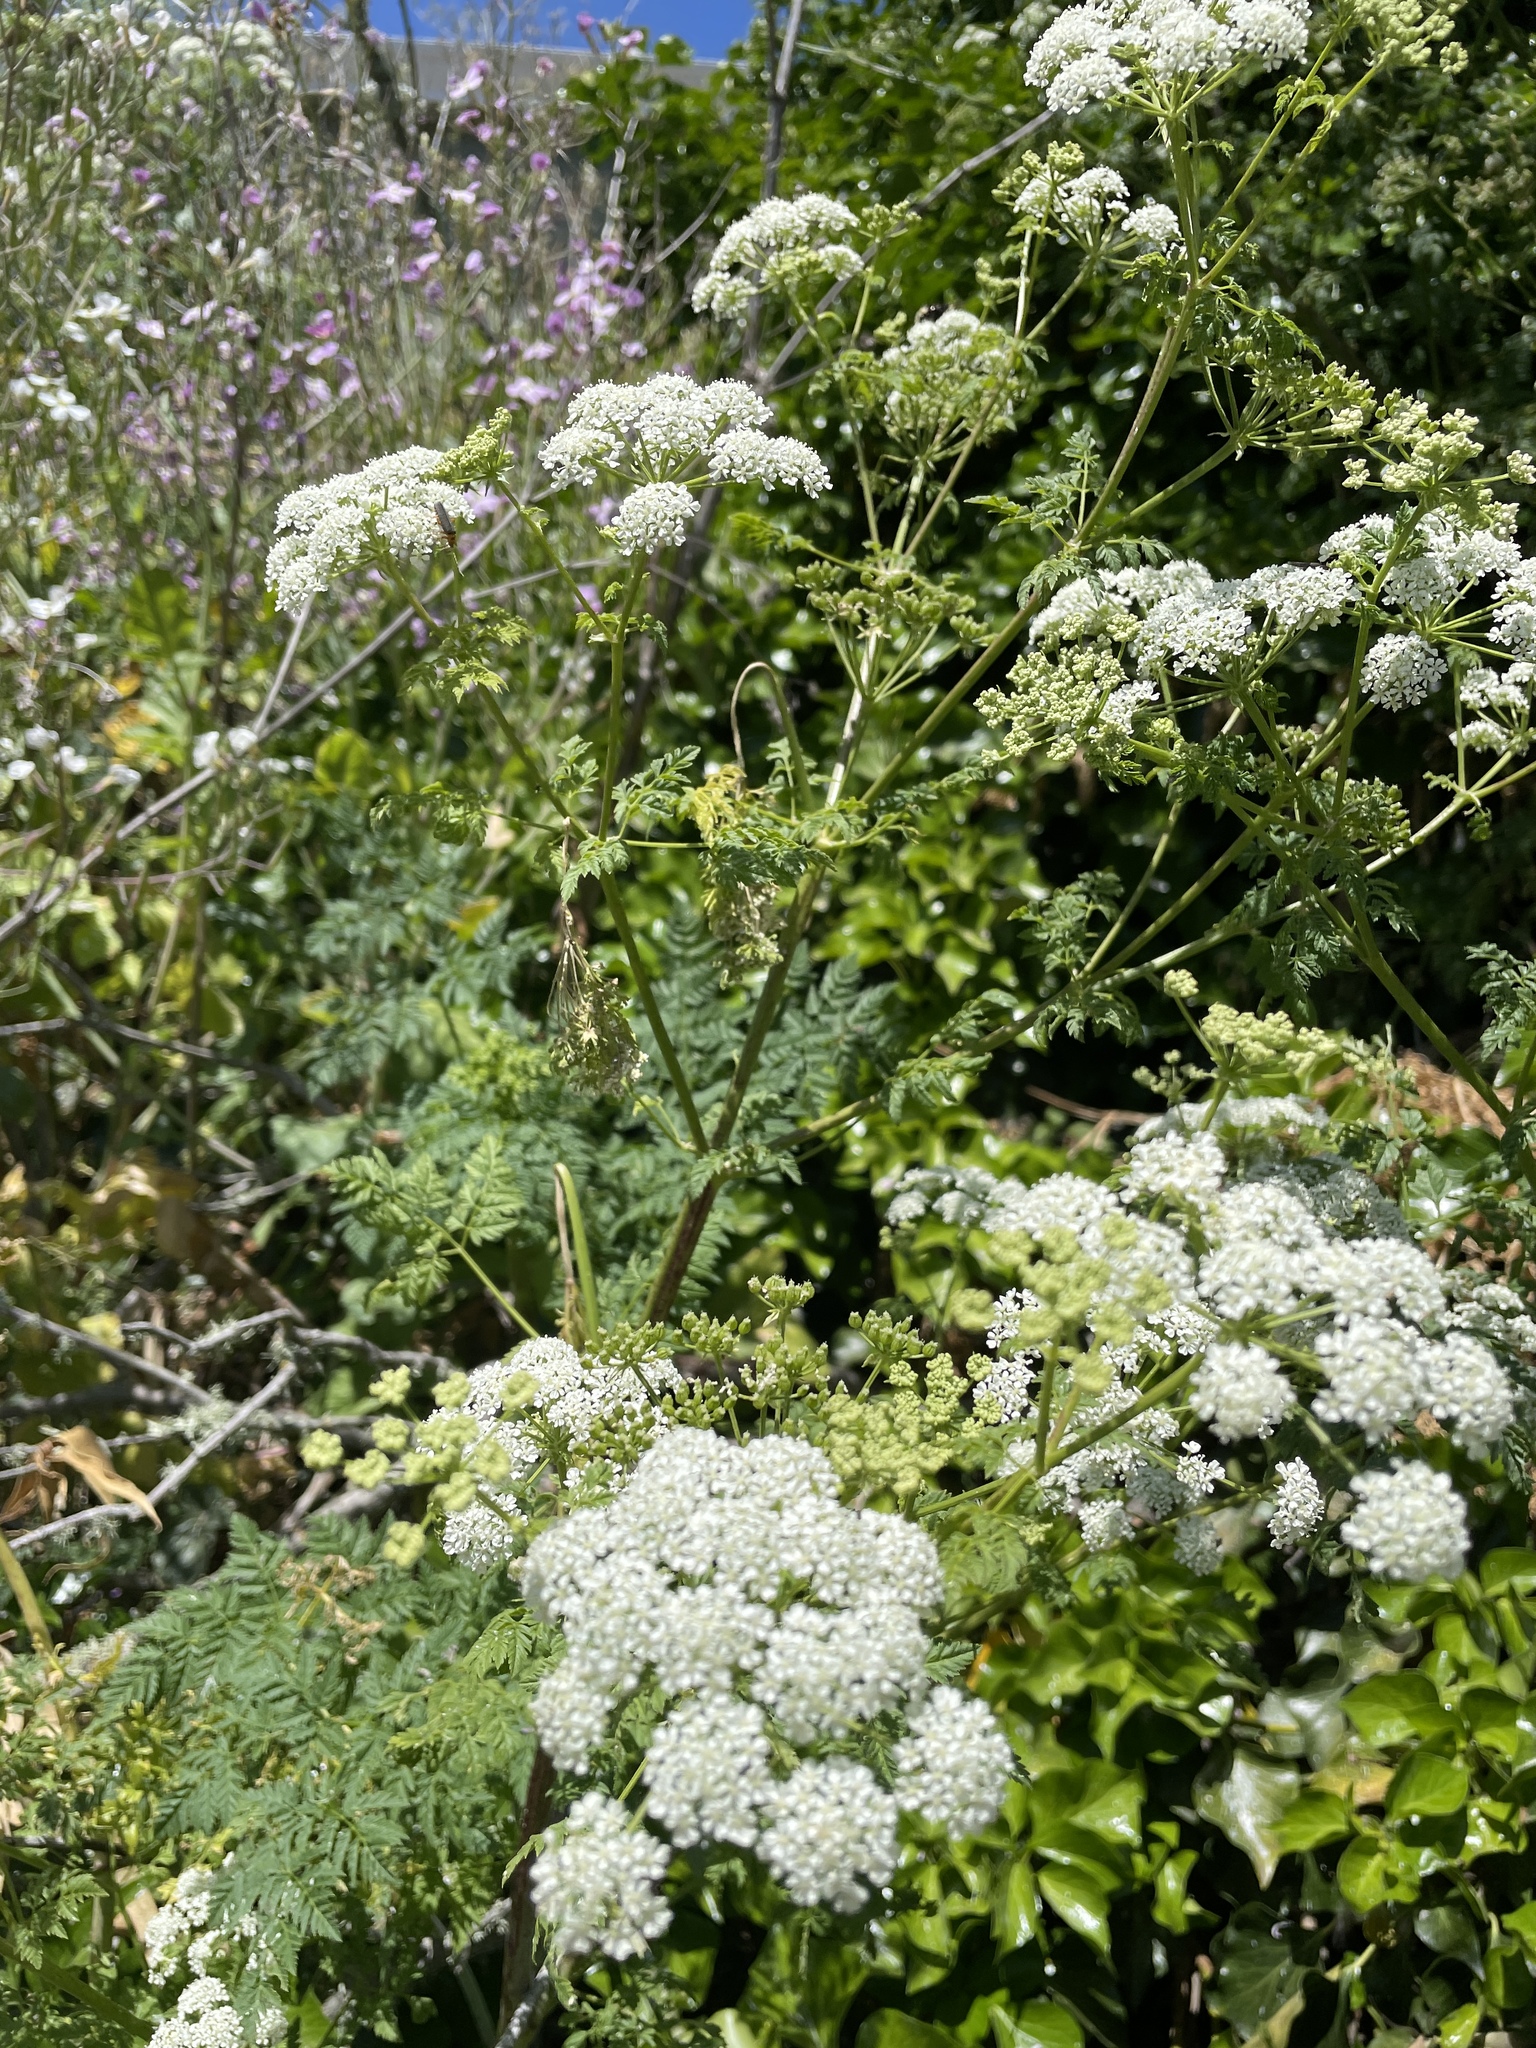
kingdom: Plantae
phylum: Tracheophyta
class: Magnoliopsida
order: Apiales
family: Apiaceae
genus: Conium
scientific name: Conium maculatum
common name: Hemlock
